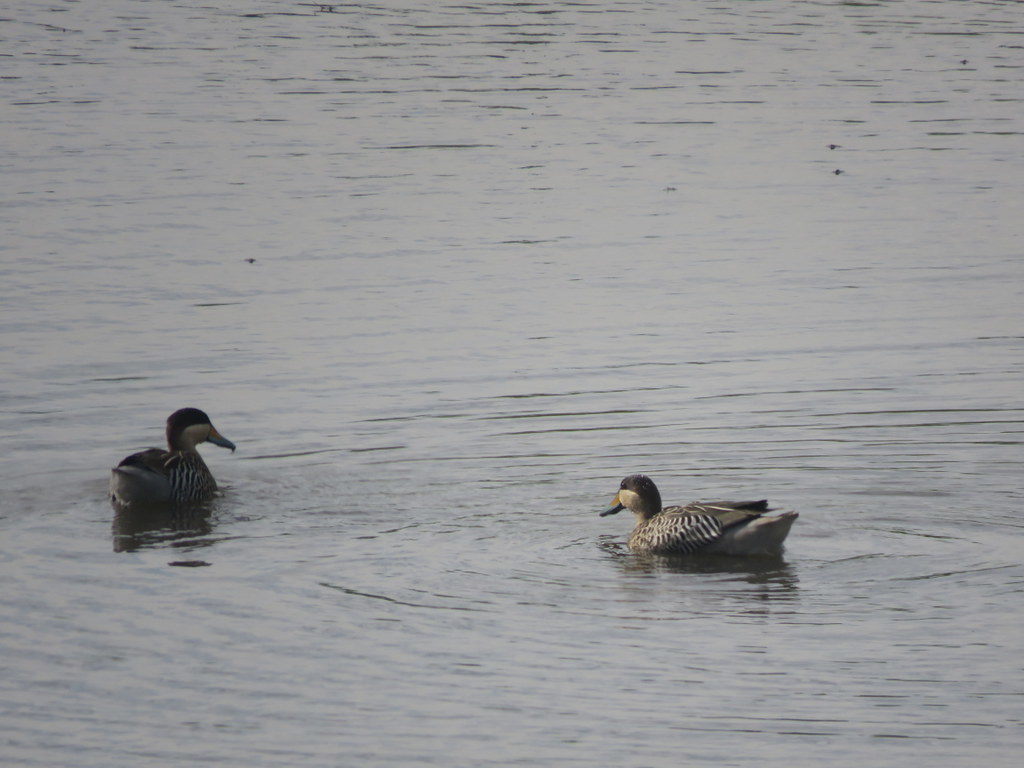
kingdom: Animalia
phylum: Chordata
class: Aves
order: Anseriformes
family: Anatidae
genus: Spatula
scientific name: Spatula versicolor
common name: Silver teal
